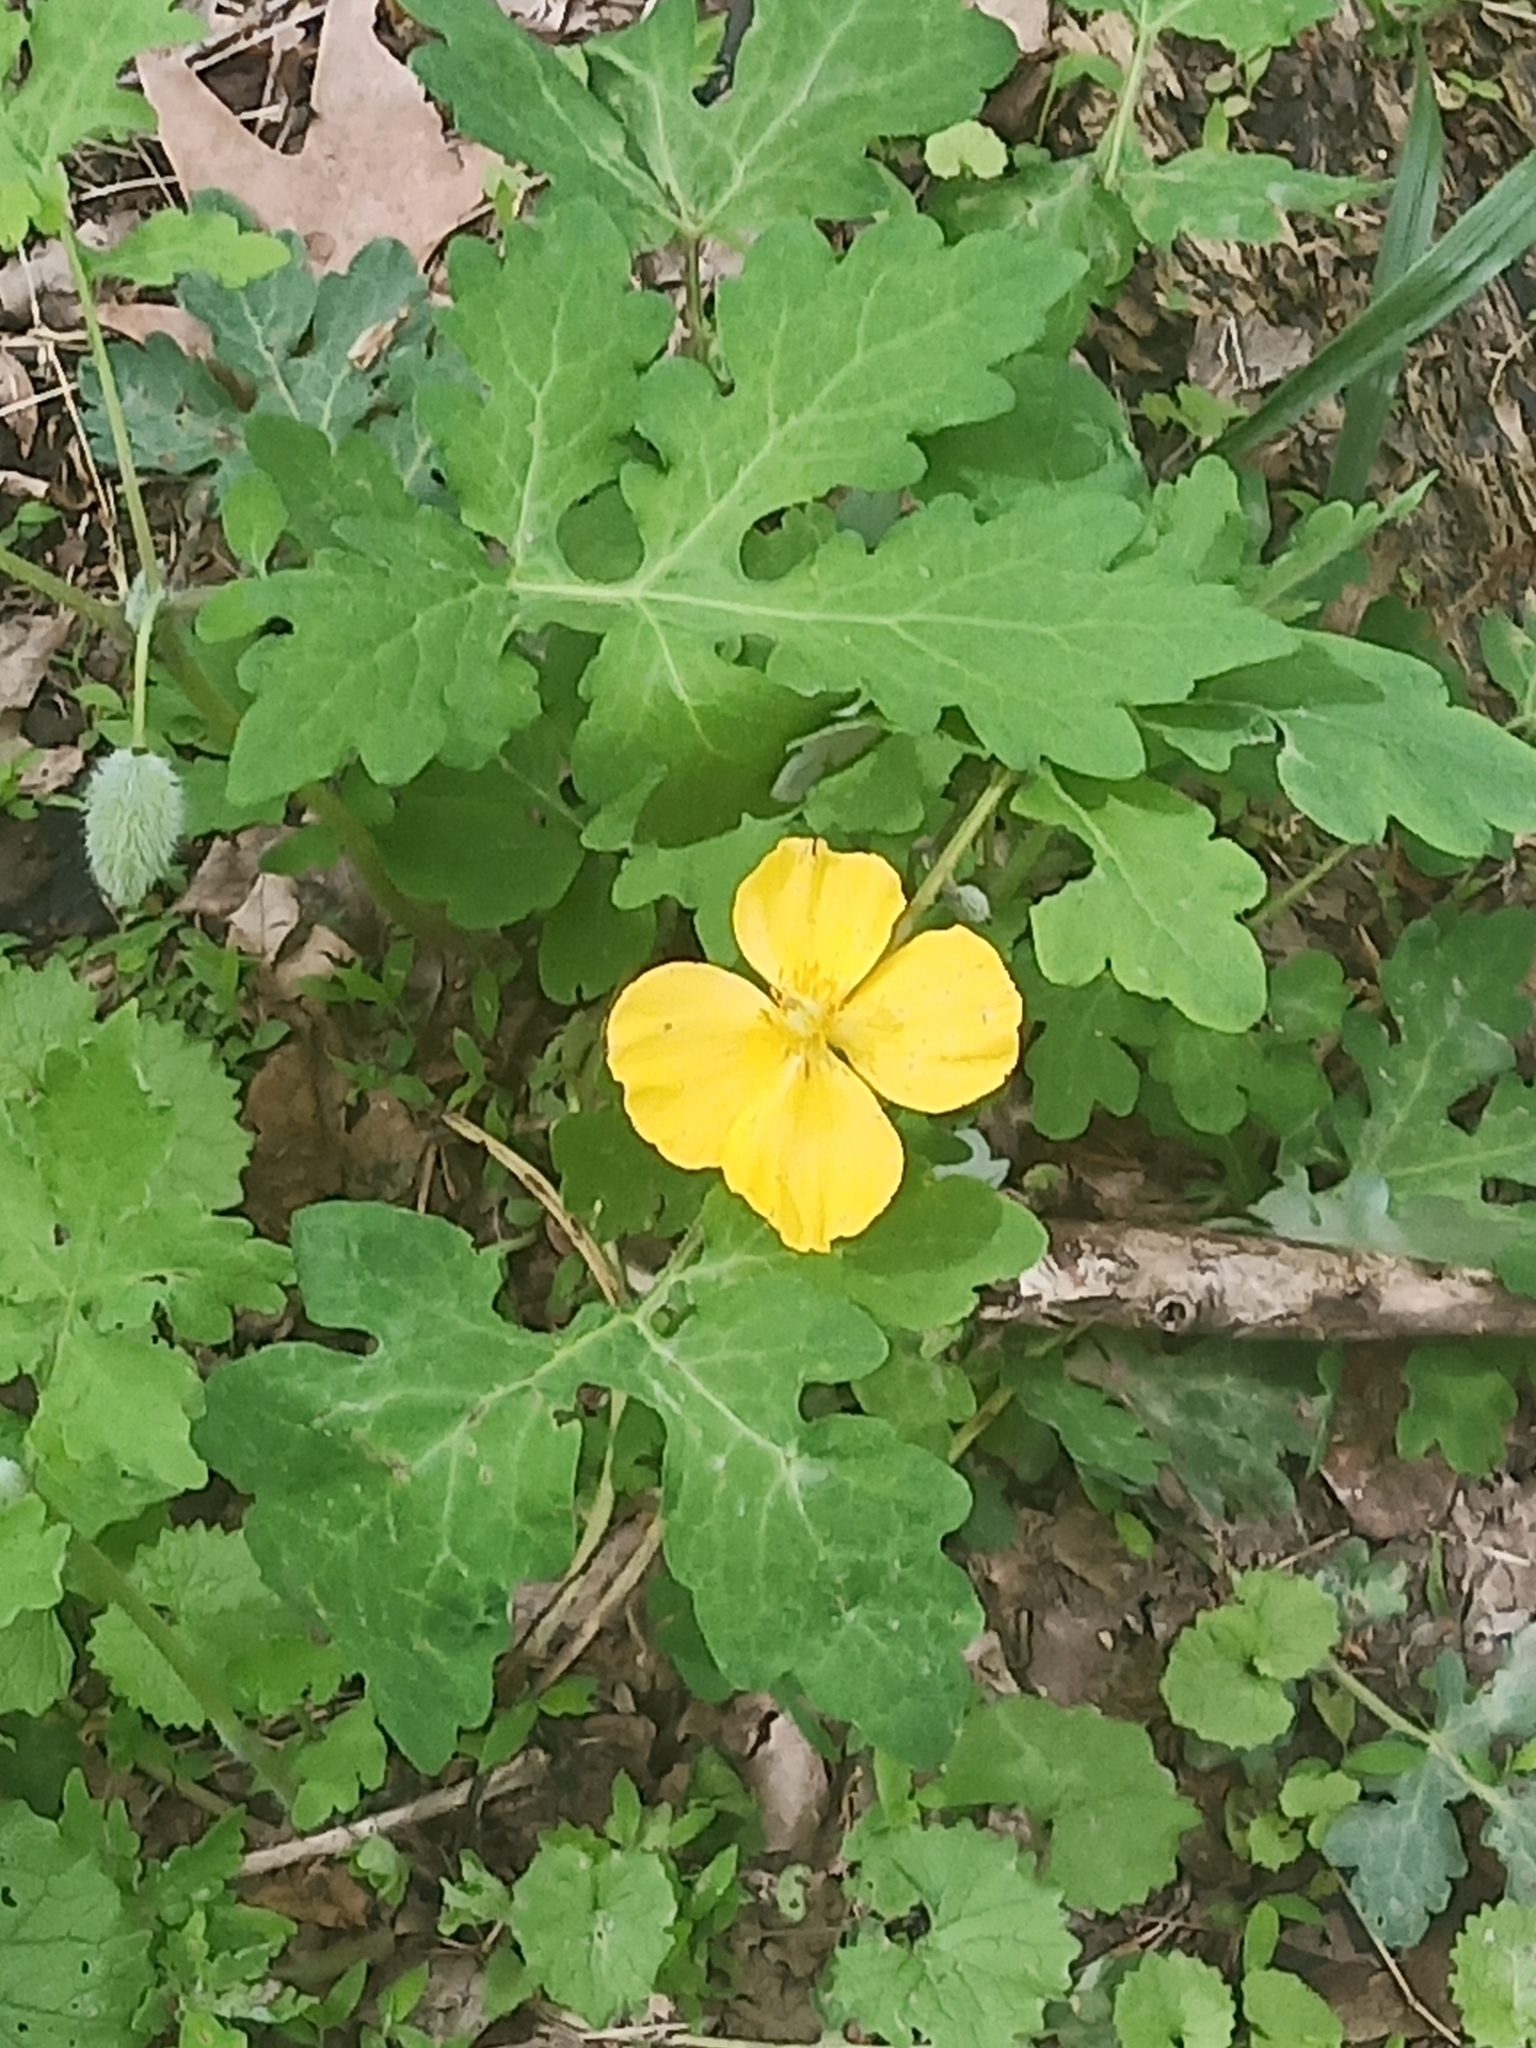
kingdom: Plantae
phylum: Tracheophyta
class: Magnoliopsida
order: Ranunculales
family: Papaveraceae
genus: Stylophorum
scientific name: Stylophorum diphyllum
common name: Celandine poppy
